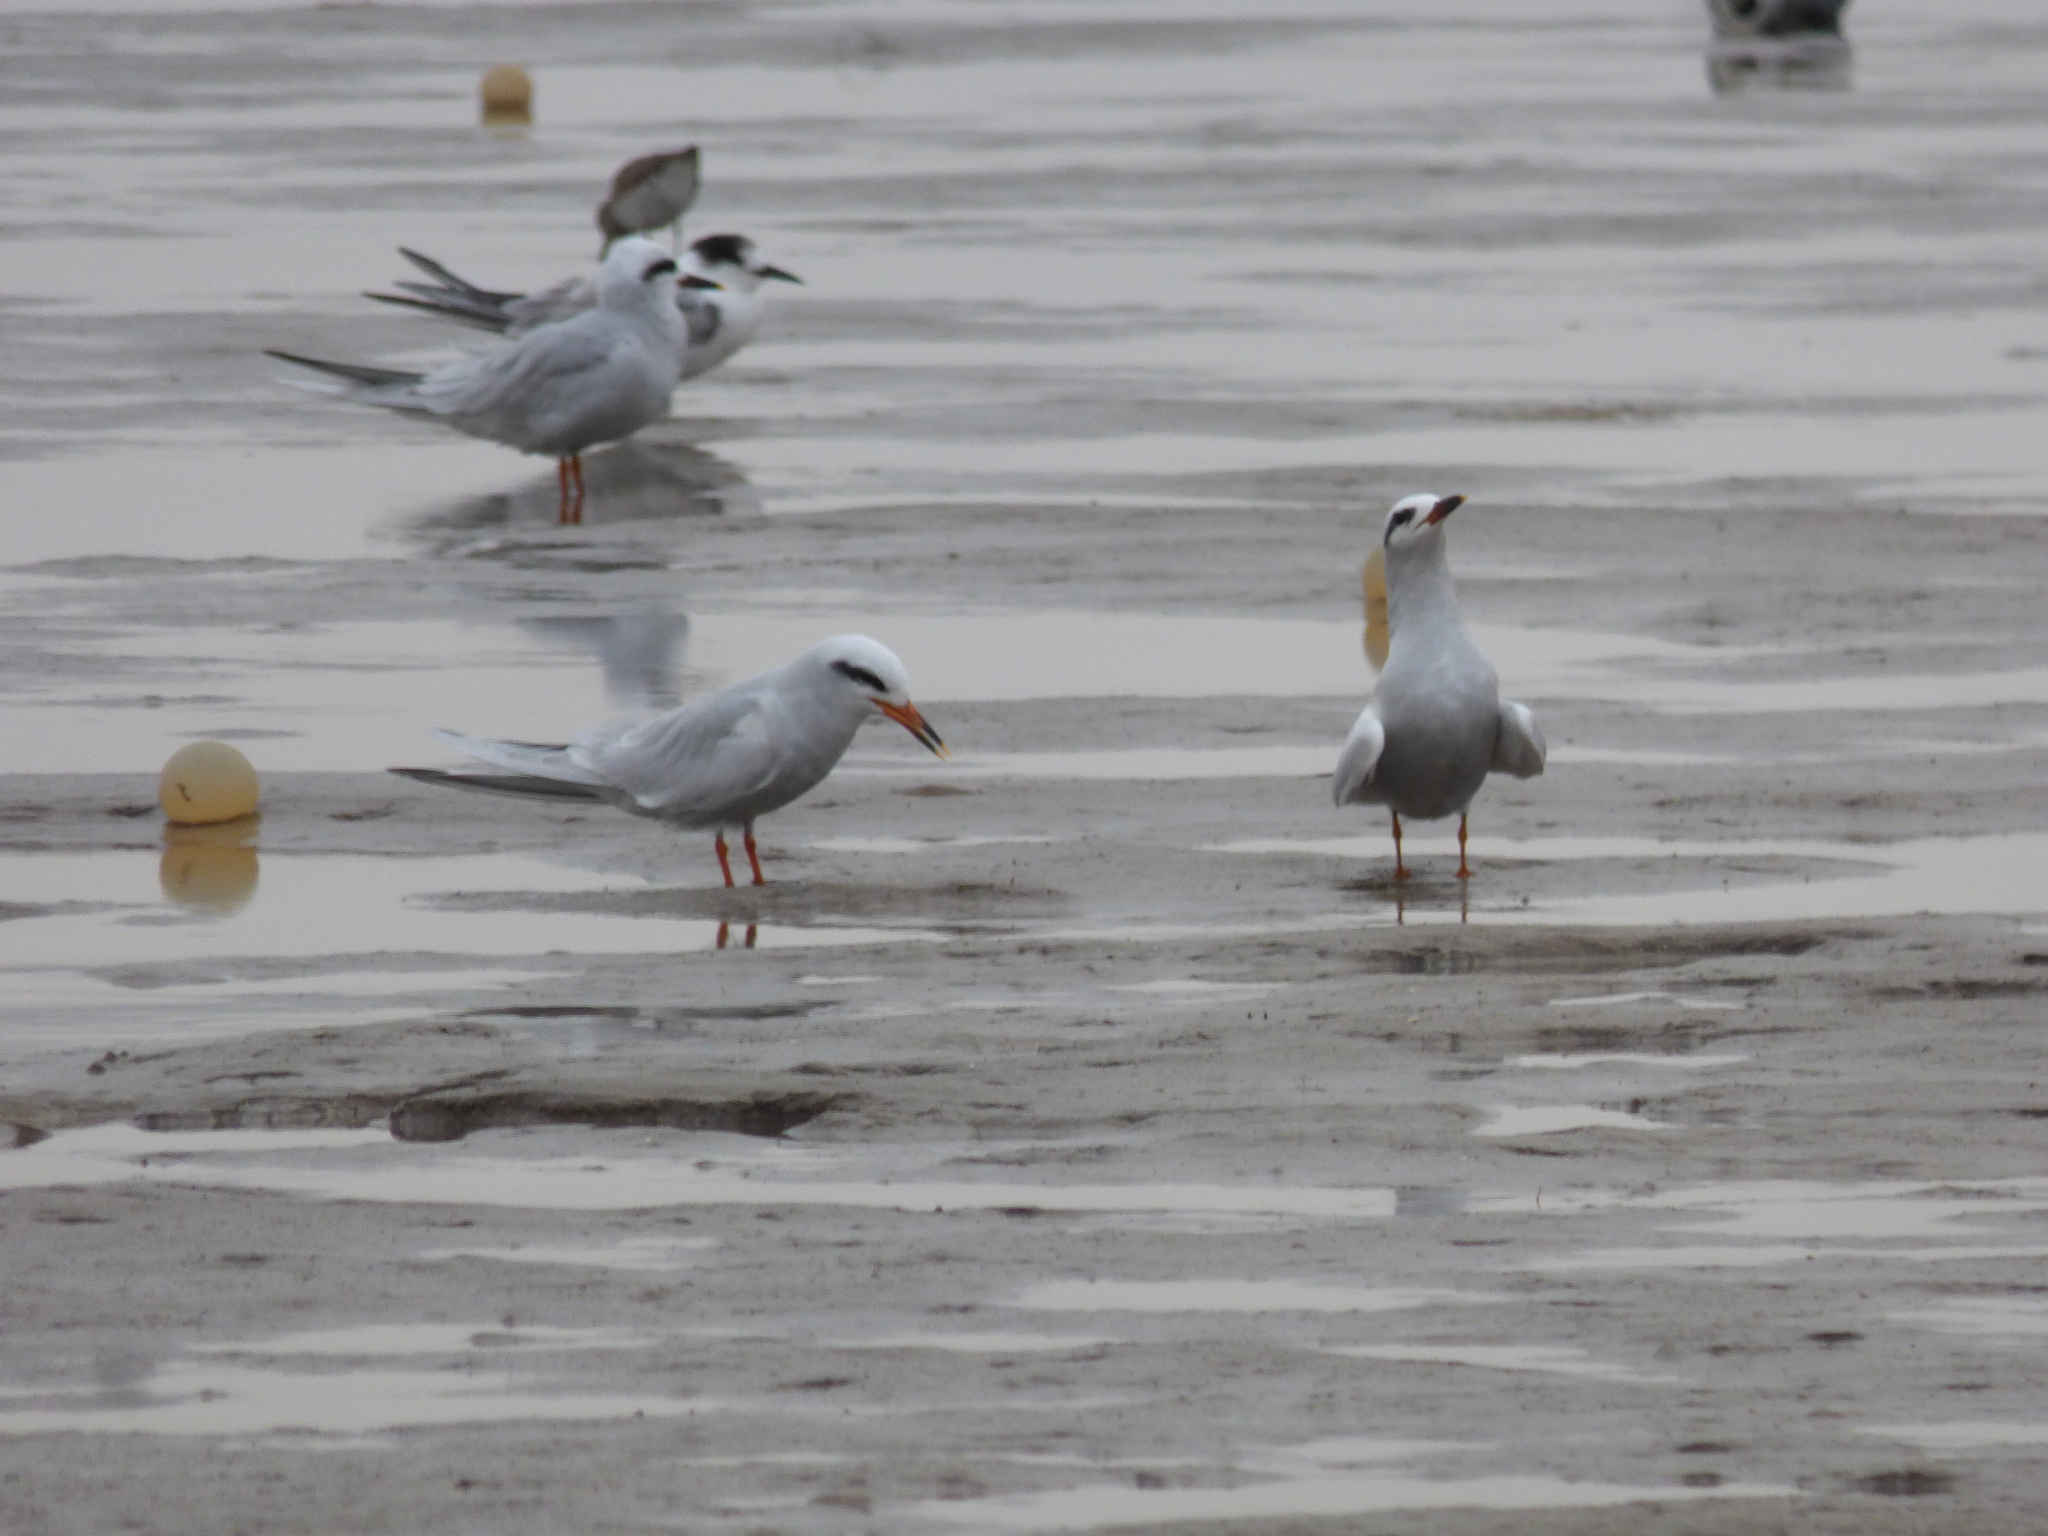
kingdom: Animalia
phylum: Chordata
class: Aves
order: Charadriiformes
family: Laridae
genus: Sterna
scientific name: Sterna trudeaui
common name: Snowy-crowned tern
